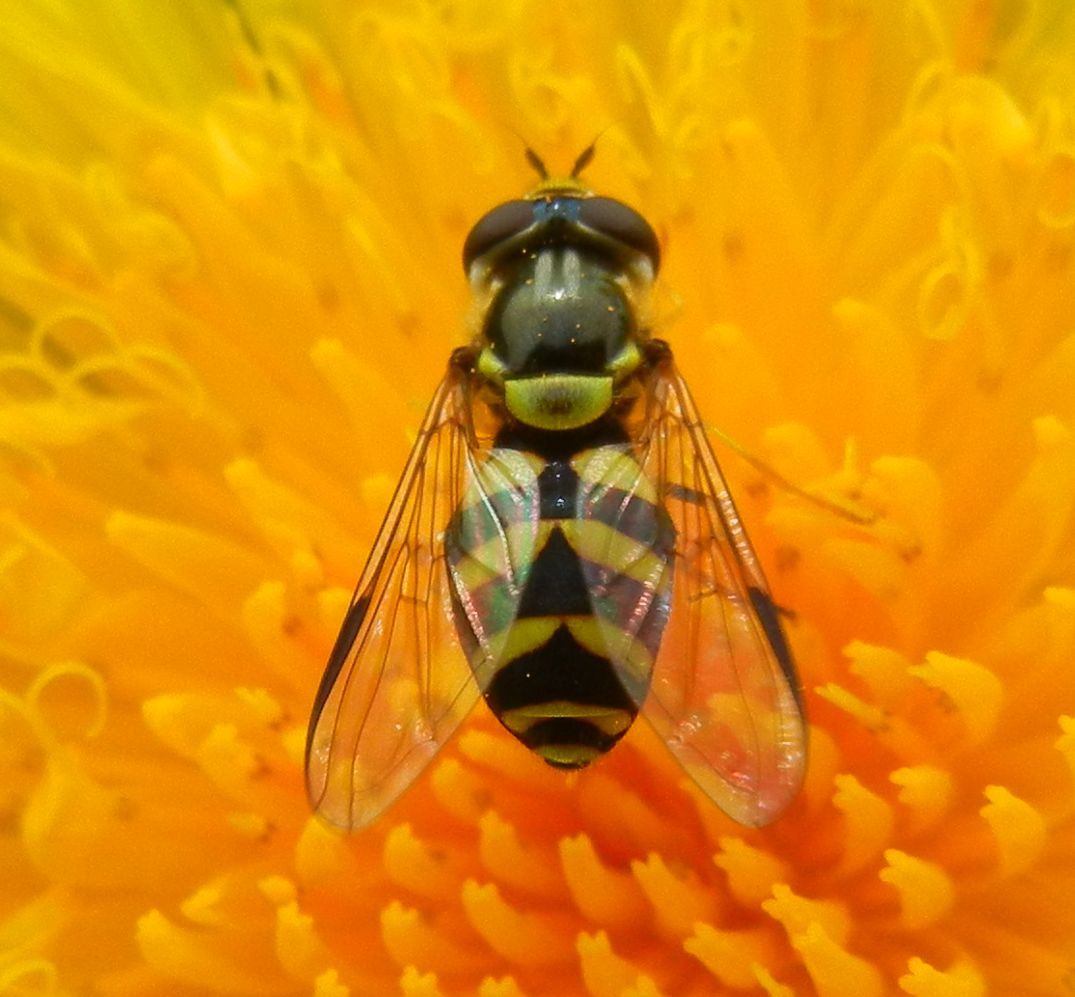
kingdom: Animalia
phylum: Arthropoda
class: Insecta
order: Diptera
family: Syrphidae
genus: Dasysyrphus
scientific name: Dasysyrphus albostriatus
